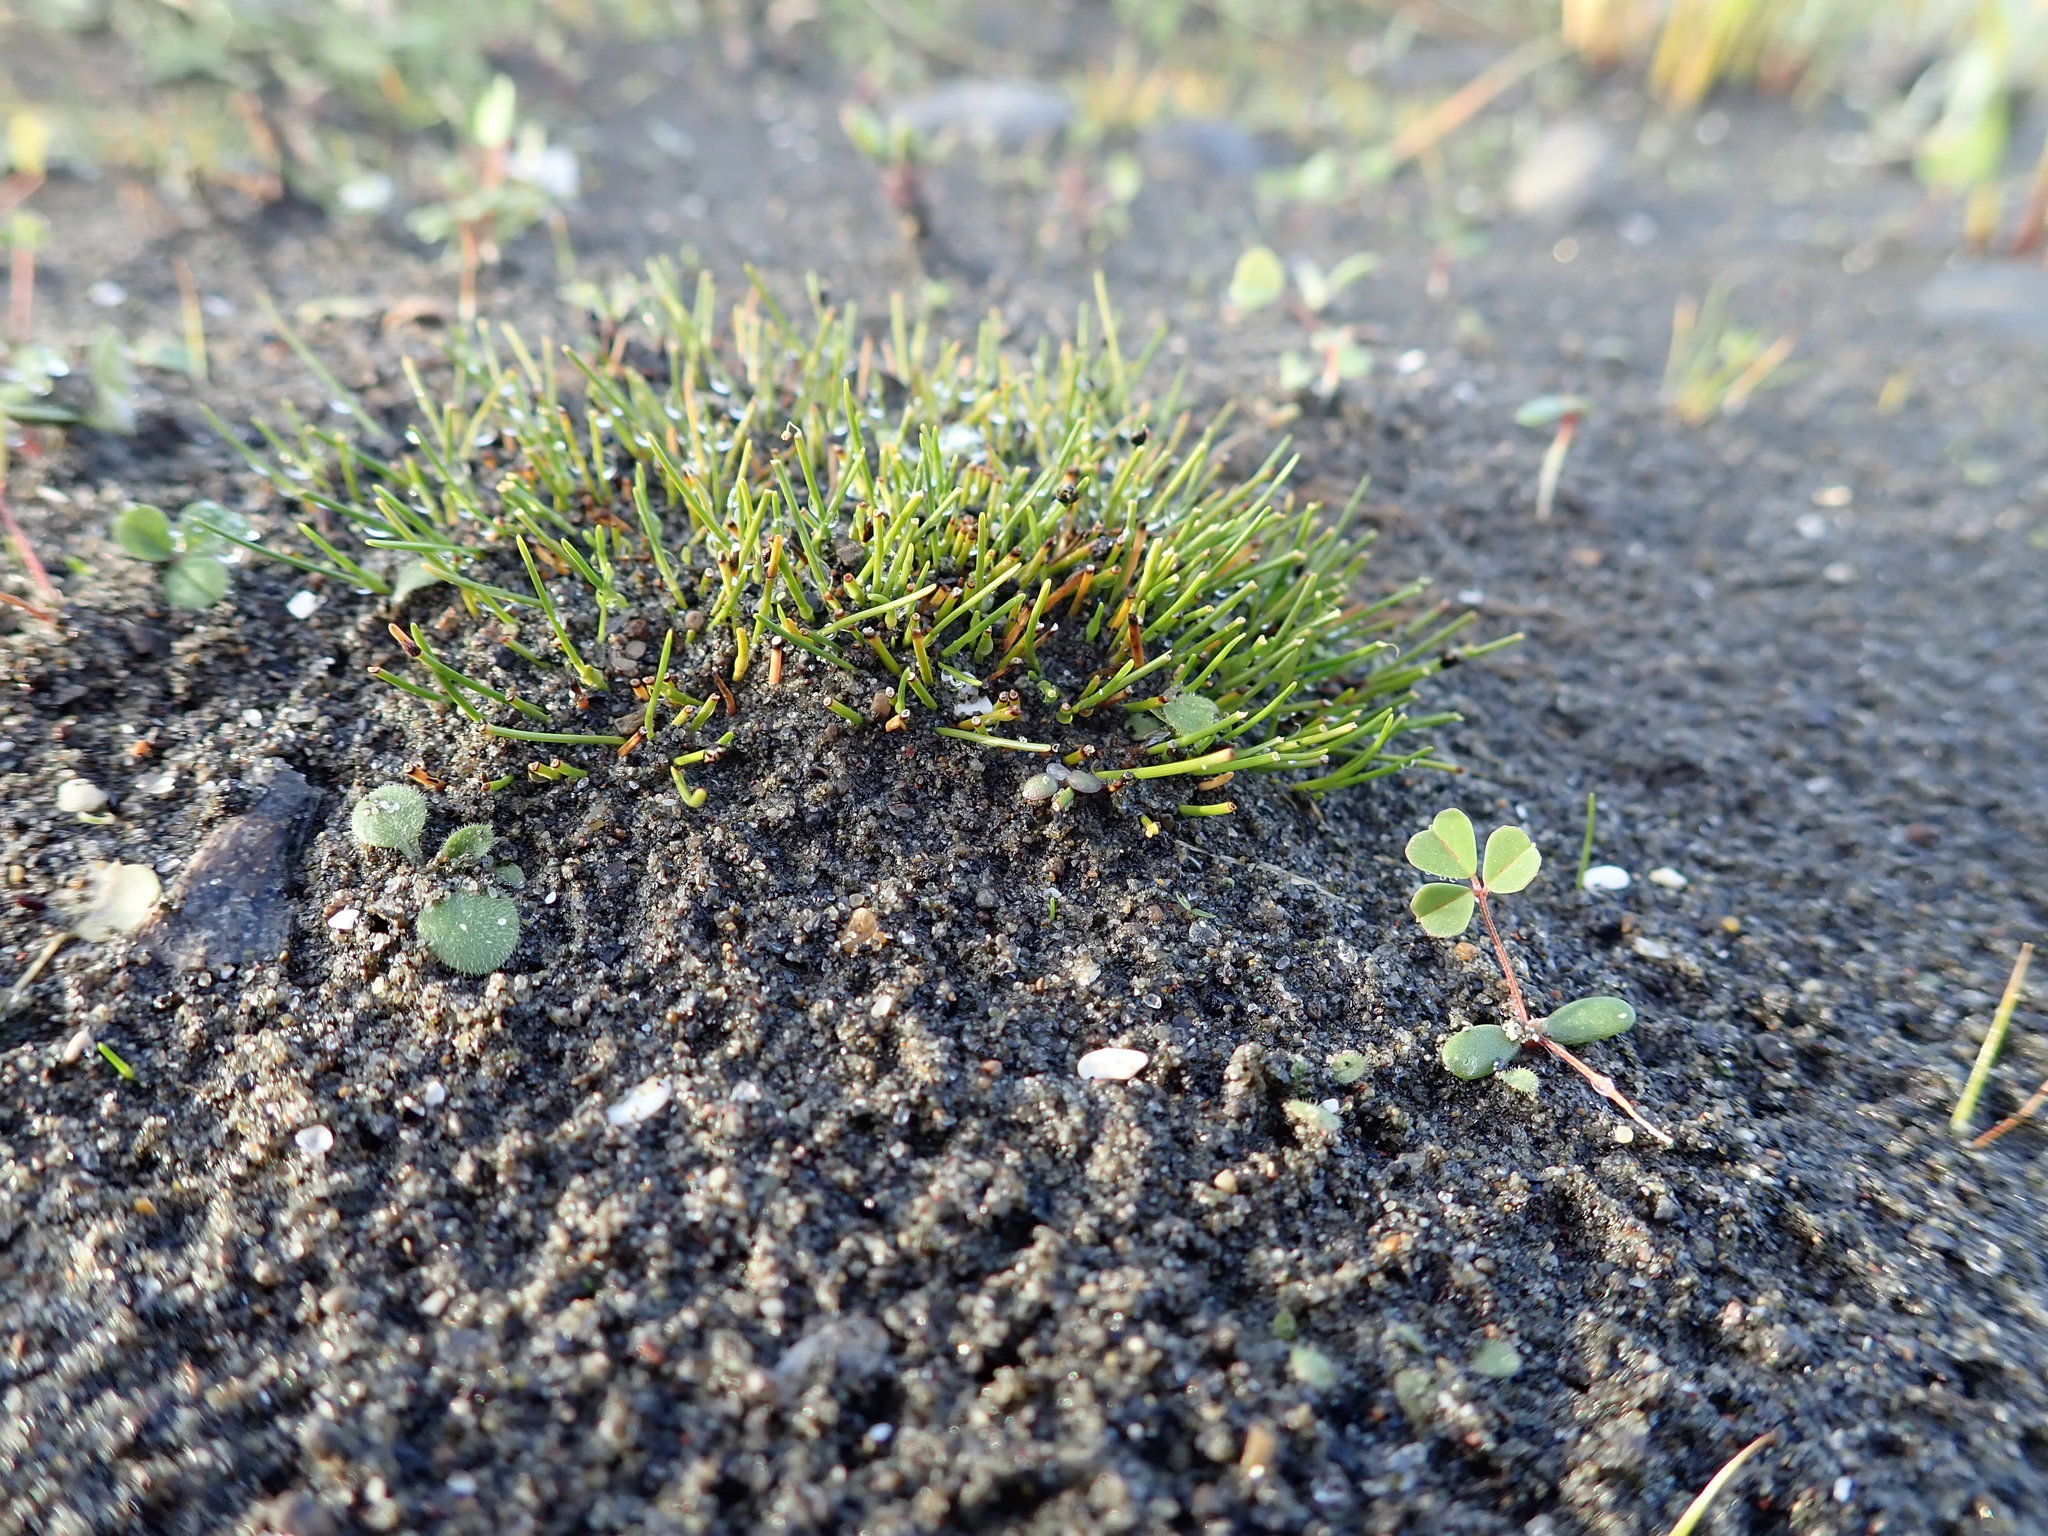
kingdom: Plantae
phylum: Tracheophyta
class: Liliopsida
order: Poales
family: Cyperaceae
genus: Isolepis
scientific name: Isolepis cernua
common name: Slender club-rush
